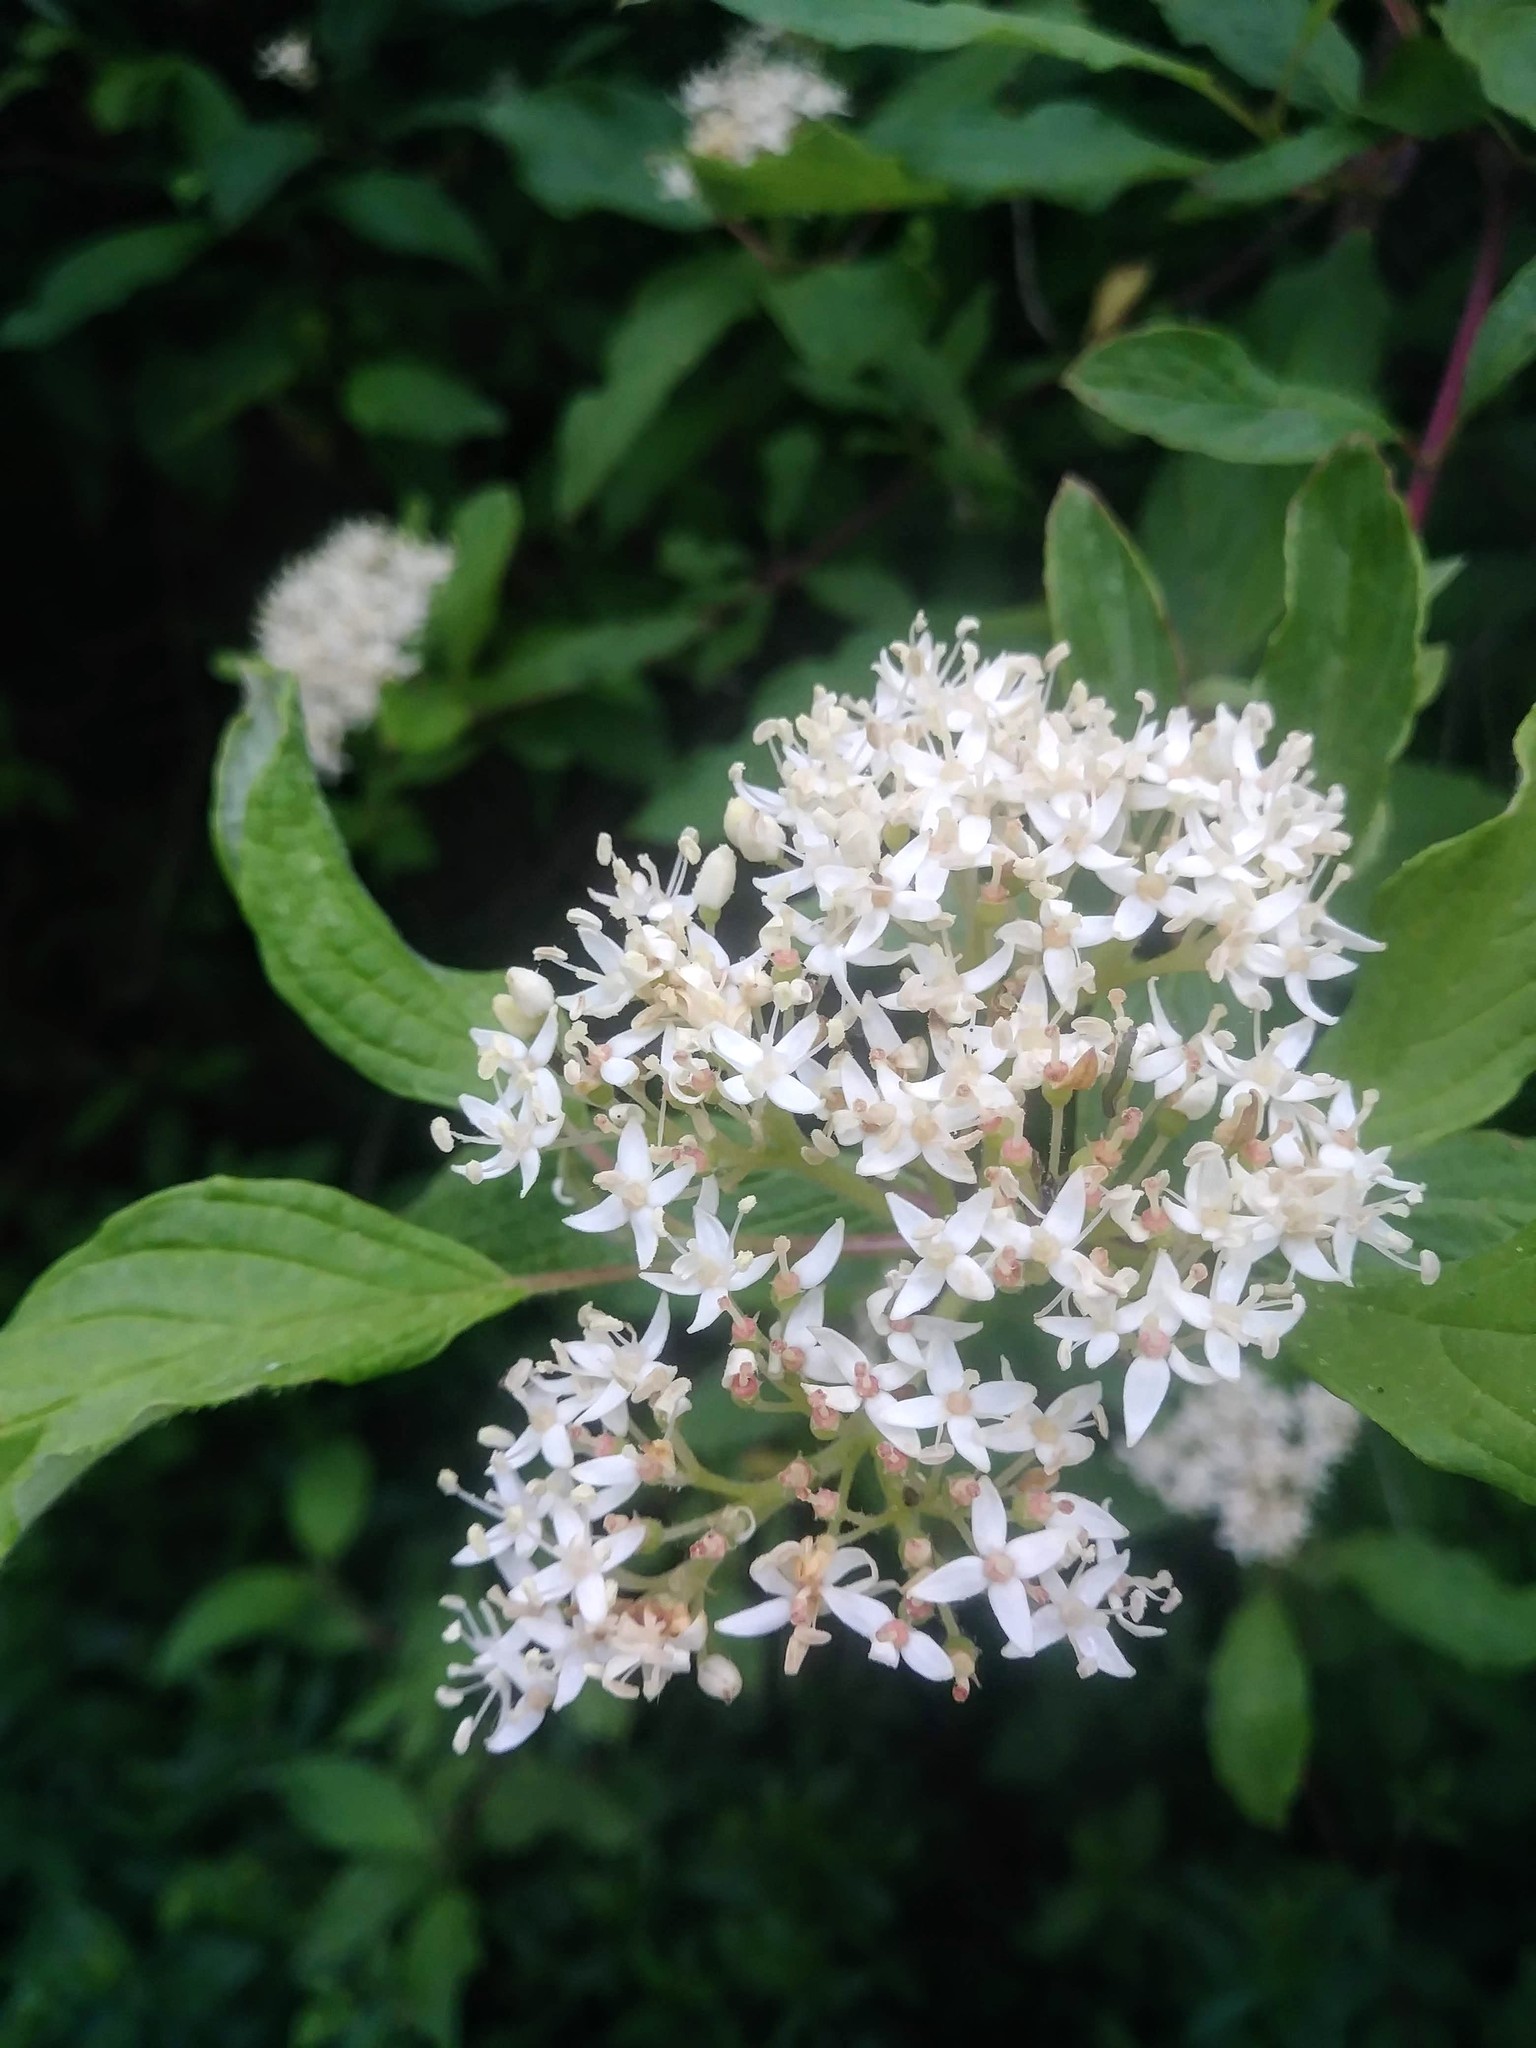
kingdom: Plantae
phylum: Tracheophyta
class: Magnoliopsida
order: Cornales
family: Cornaceae
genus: Cornus
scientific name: Cornus sericea
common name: Red-osier dogwood
